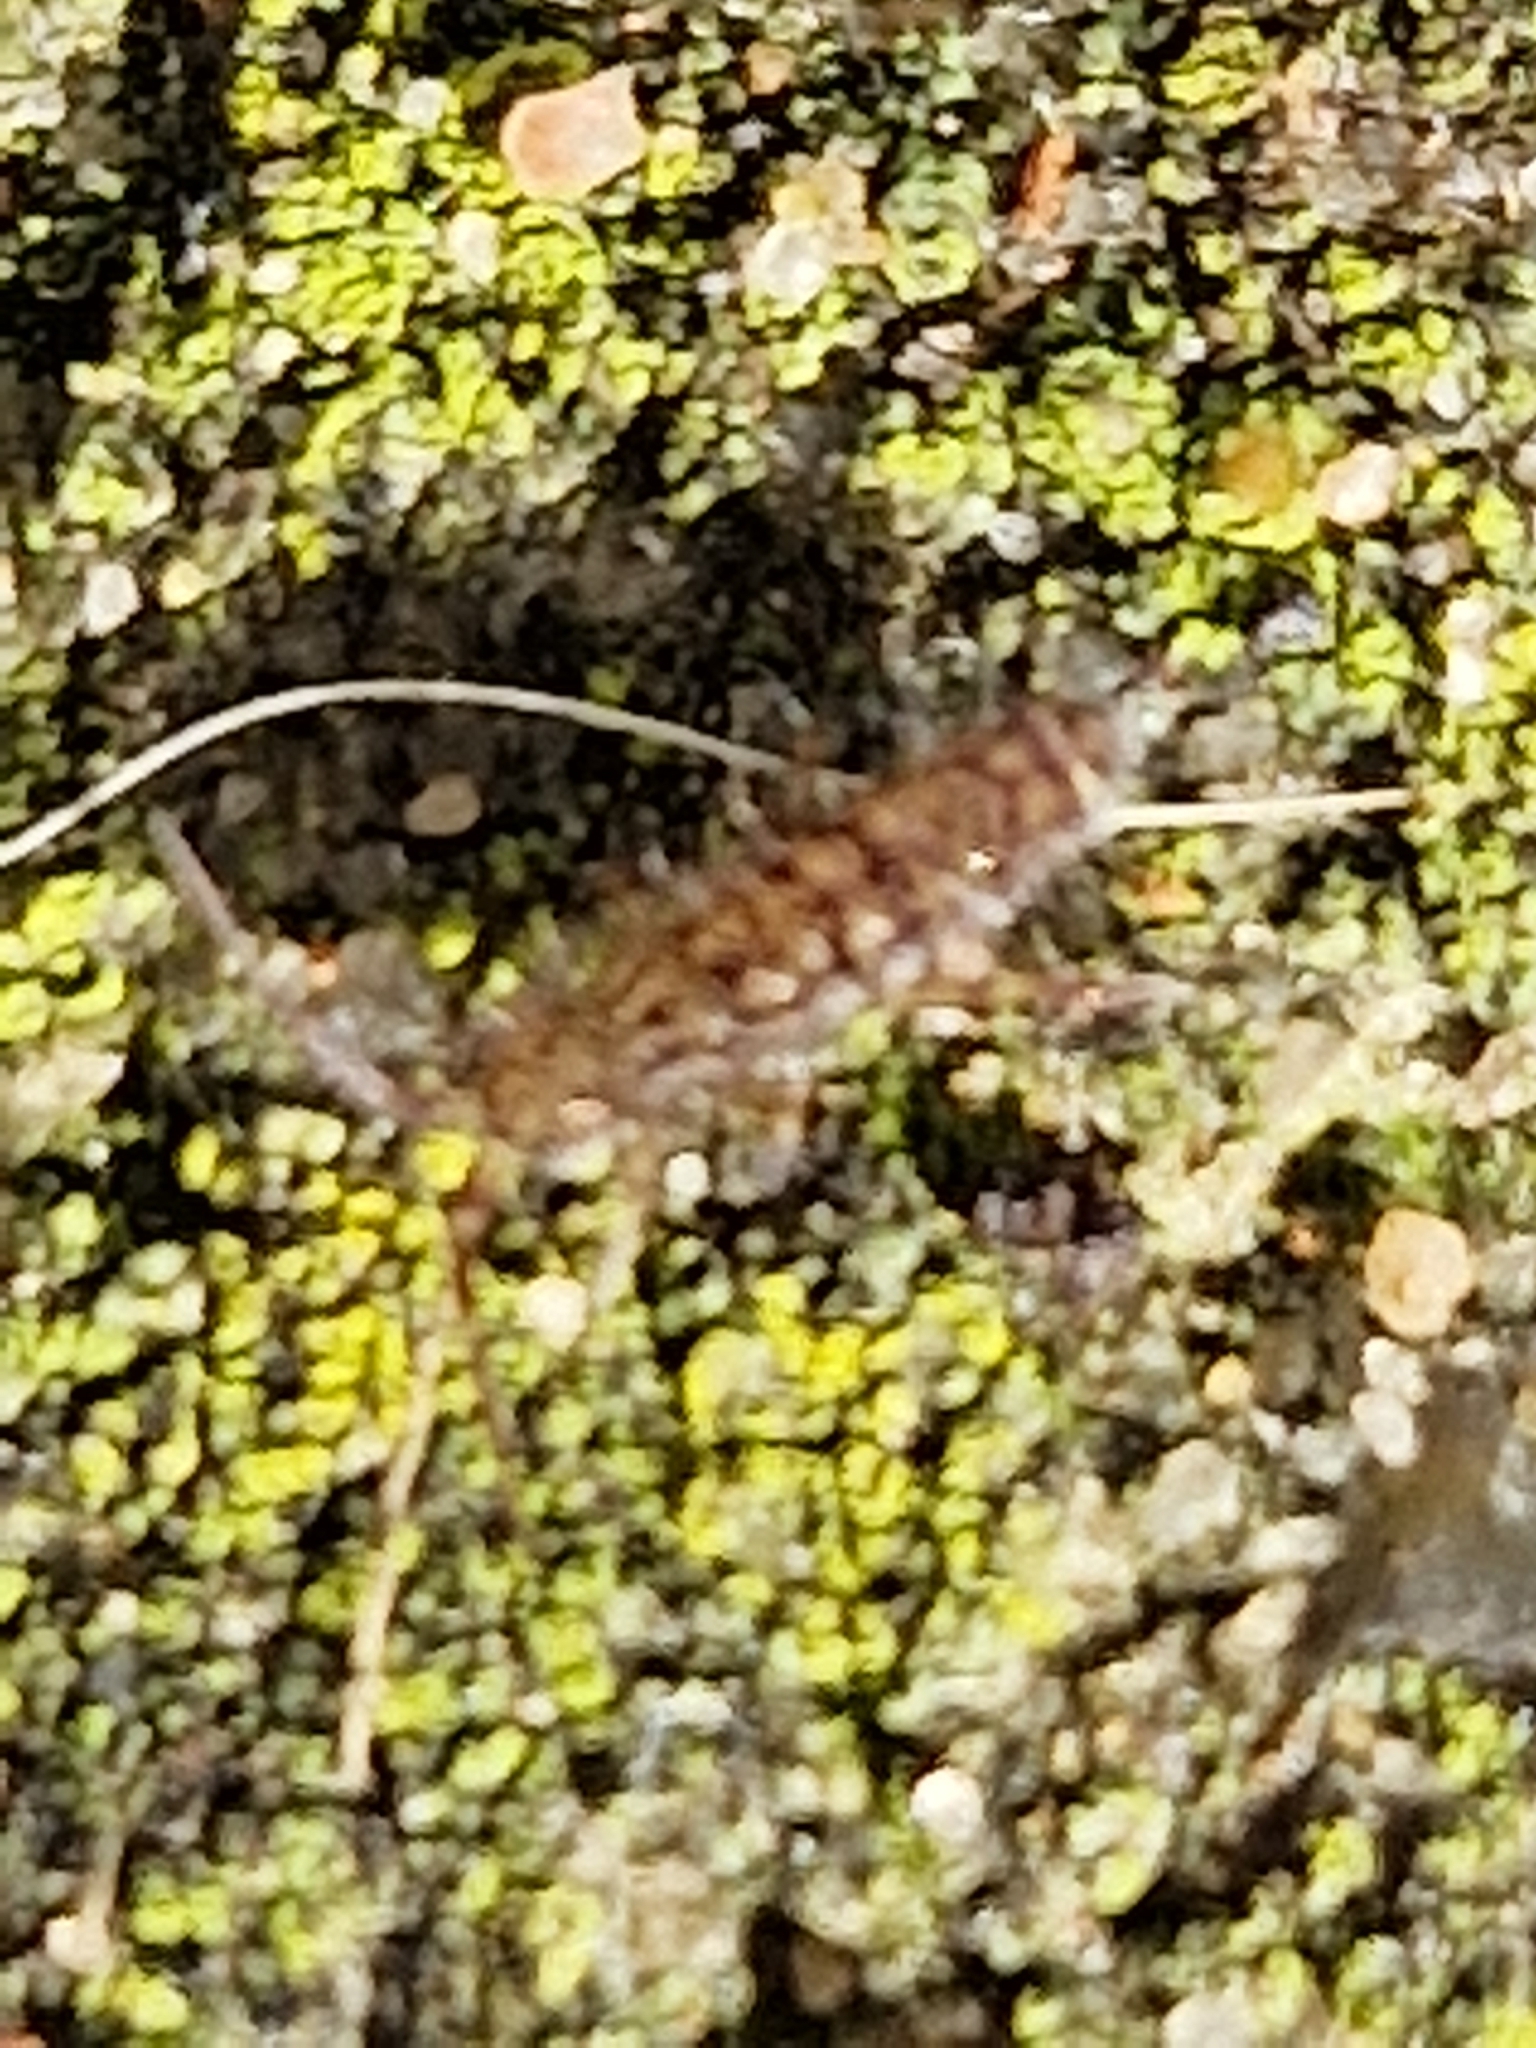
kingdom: Animalia
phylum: Arthropoda
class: Collembola
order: Entomobryomorpha
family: Orchesellidae
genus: Orchesella
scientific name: Orchesella villosa
